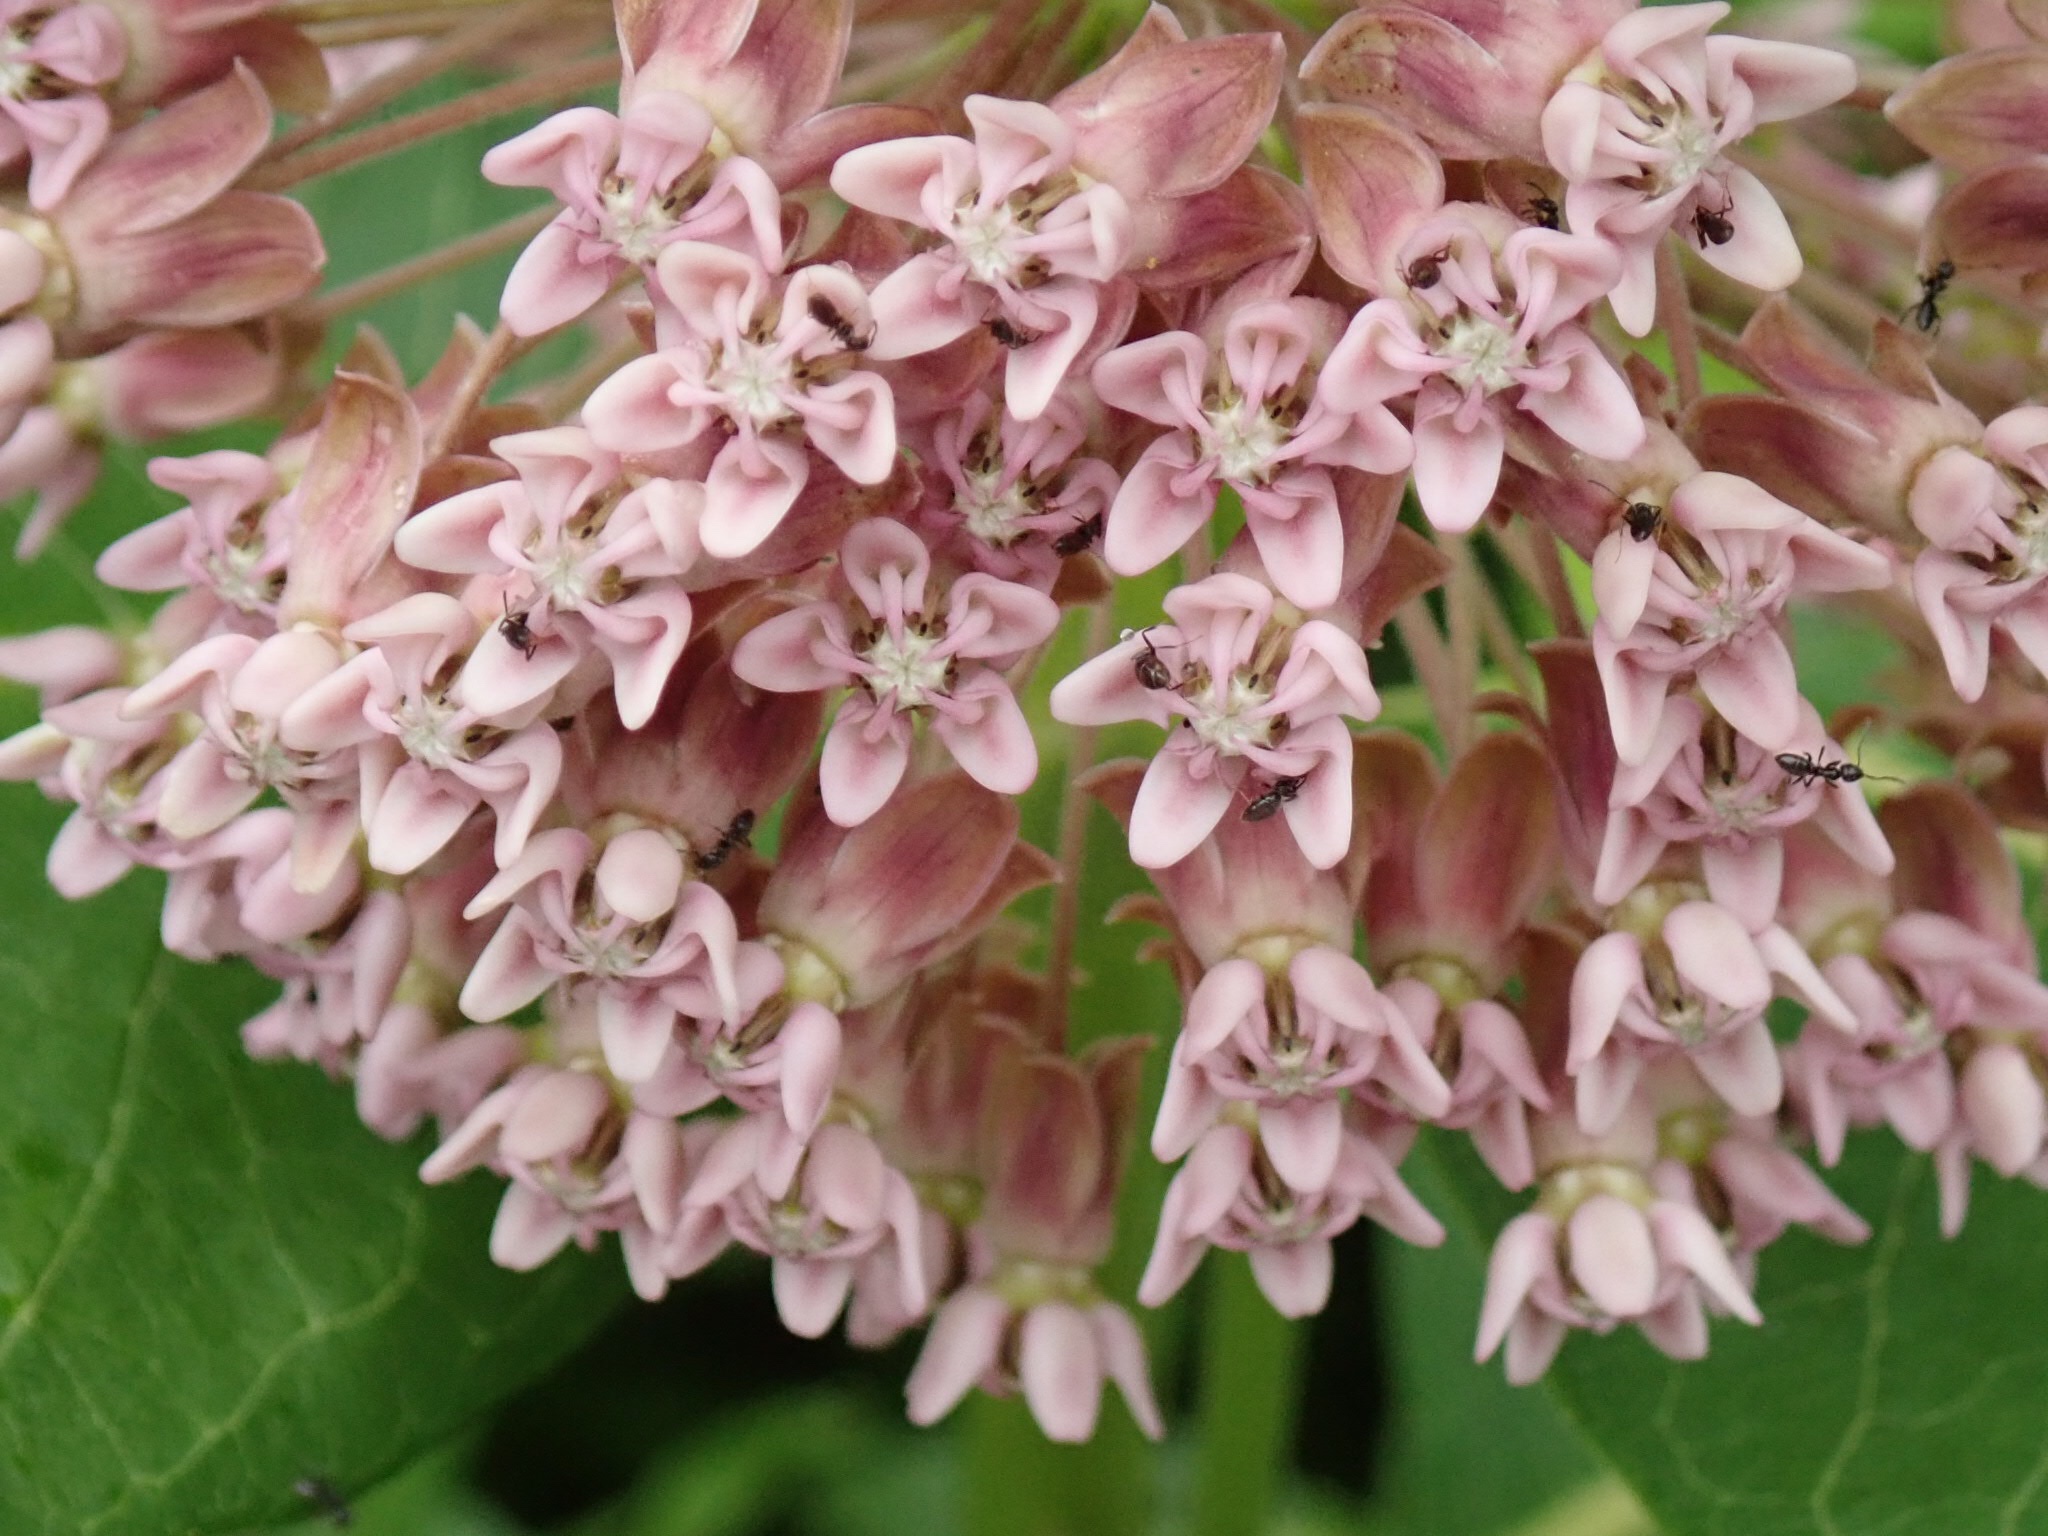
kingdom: Plantae
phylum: Tracheophyta
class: Magnoliopsida
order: Gentianales
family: Apocynaceae
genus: Asclepias
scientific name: Asclepias syriaca
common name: Common milkweed
